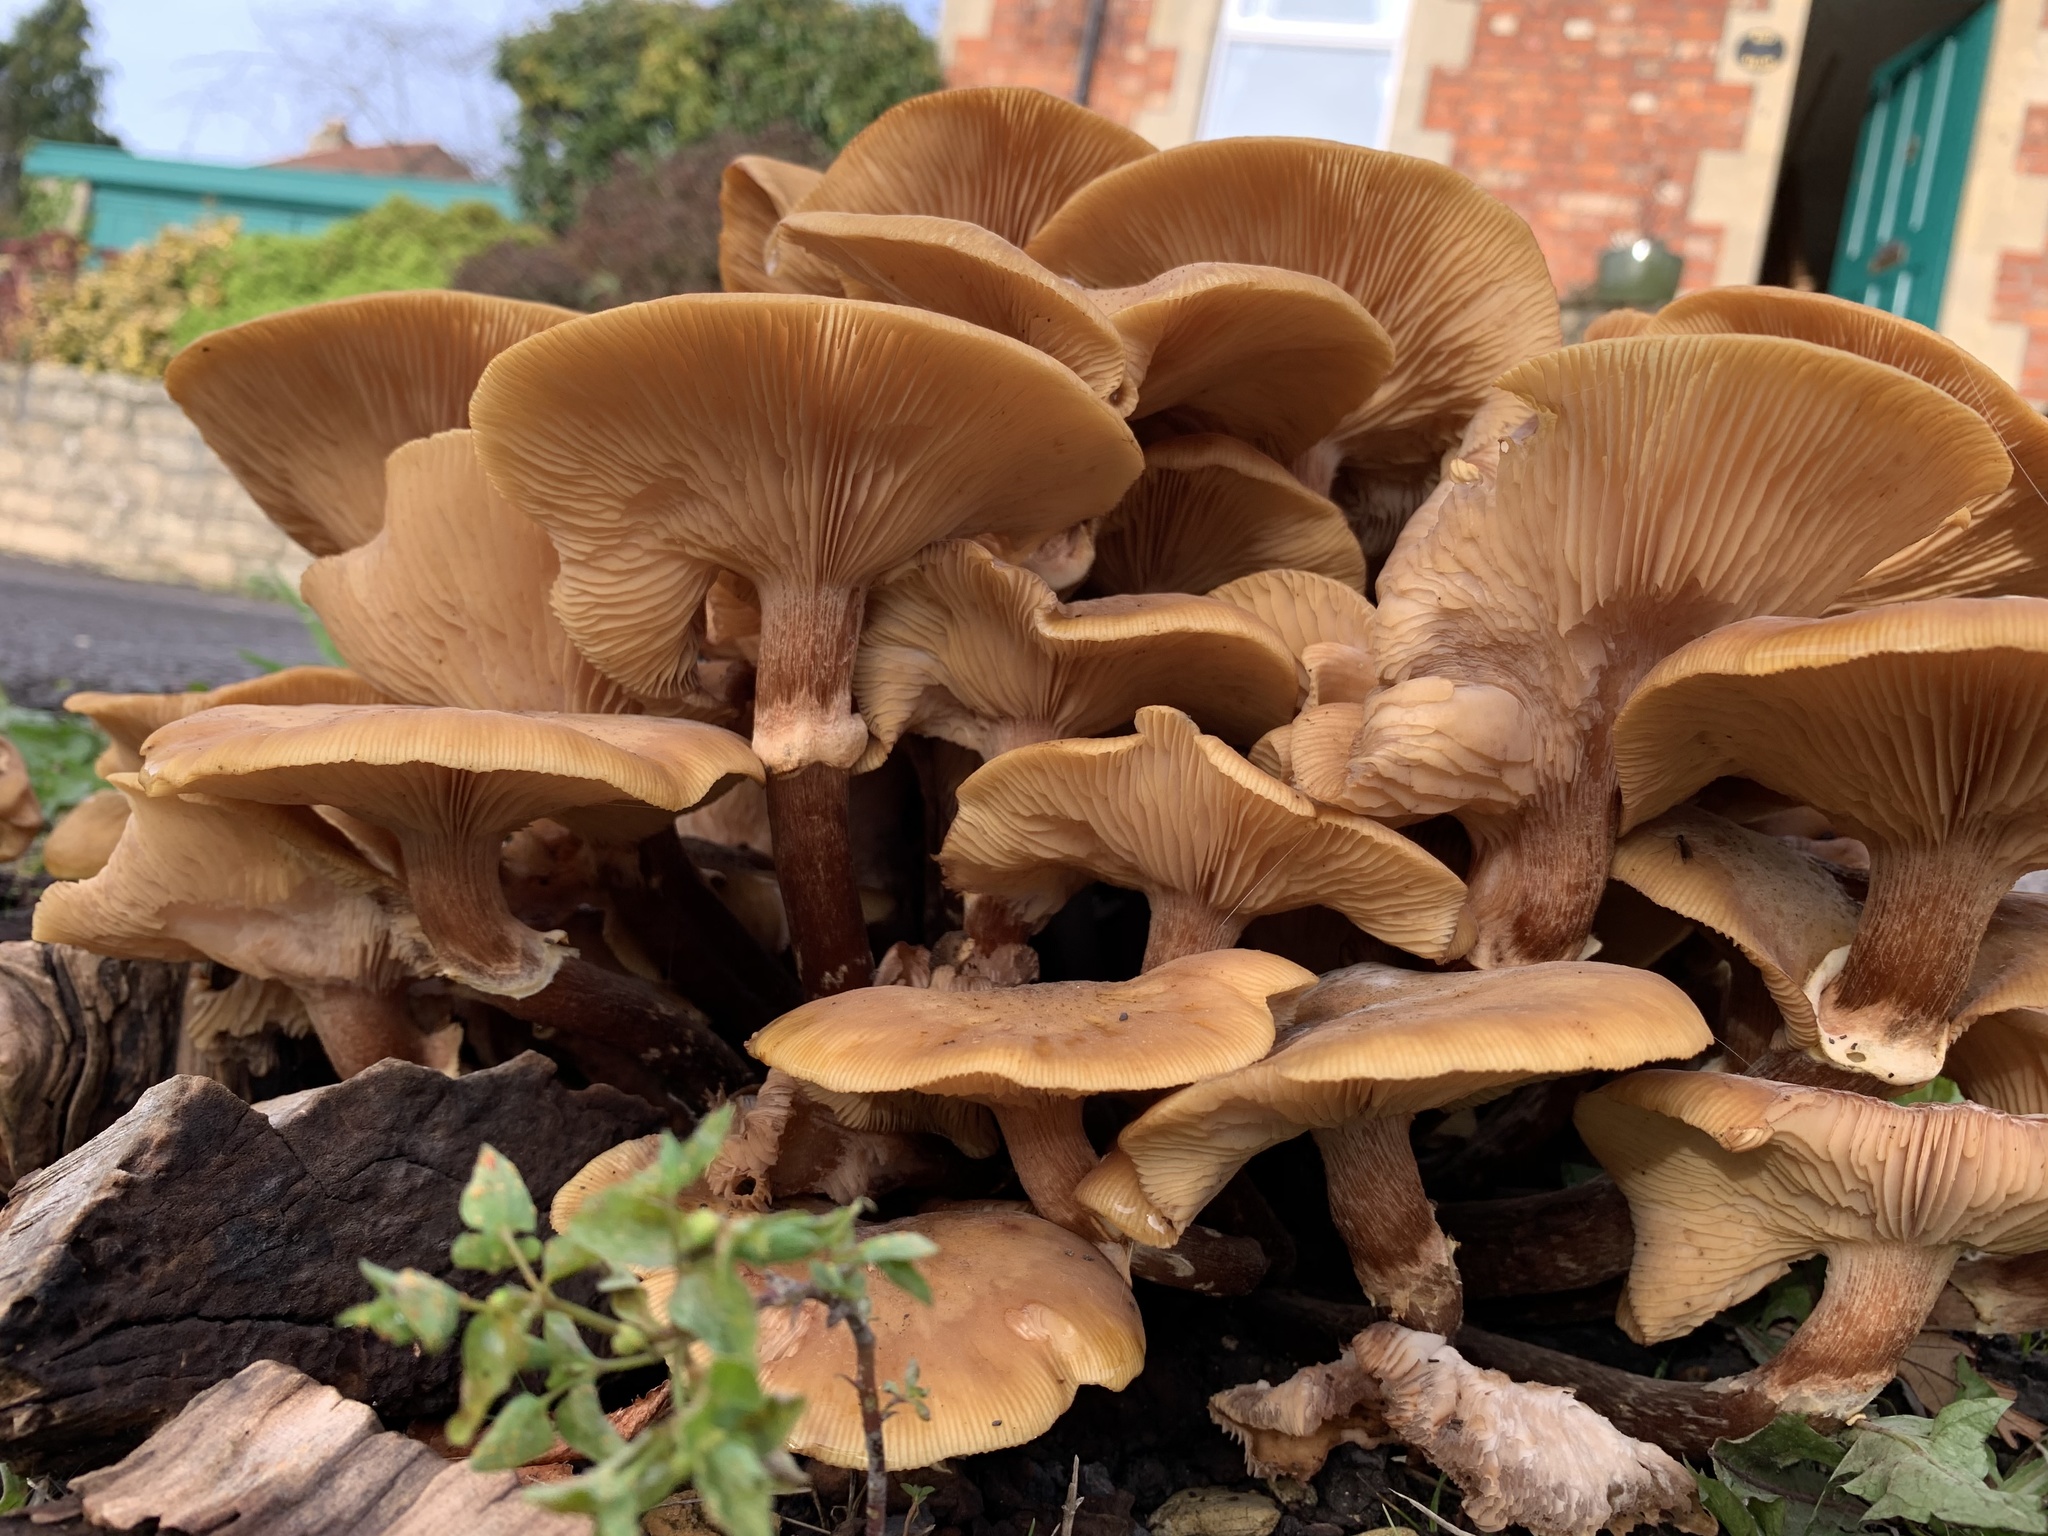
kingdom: Fungi
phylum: Basidiomycota
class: Agaricomycetes
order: Agaricales
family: Physalacriaceae
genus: Armillaria
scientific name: Armillaria mellea
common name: Honey fungus
